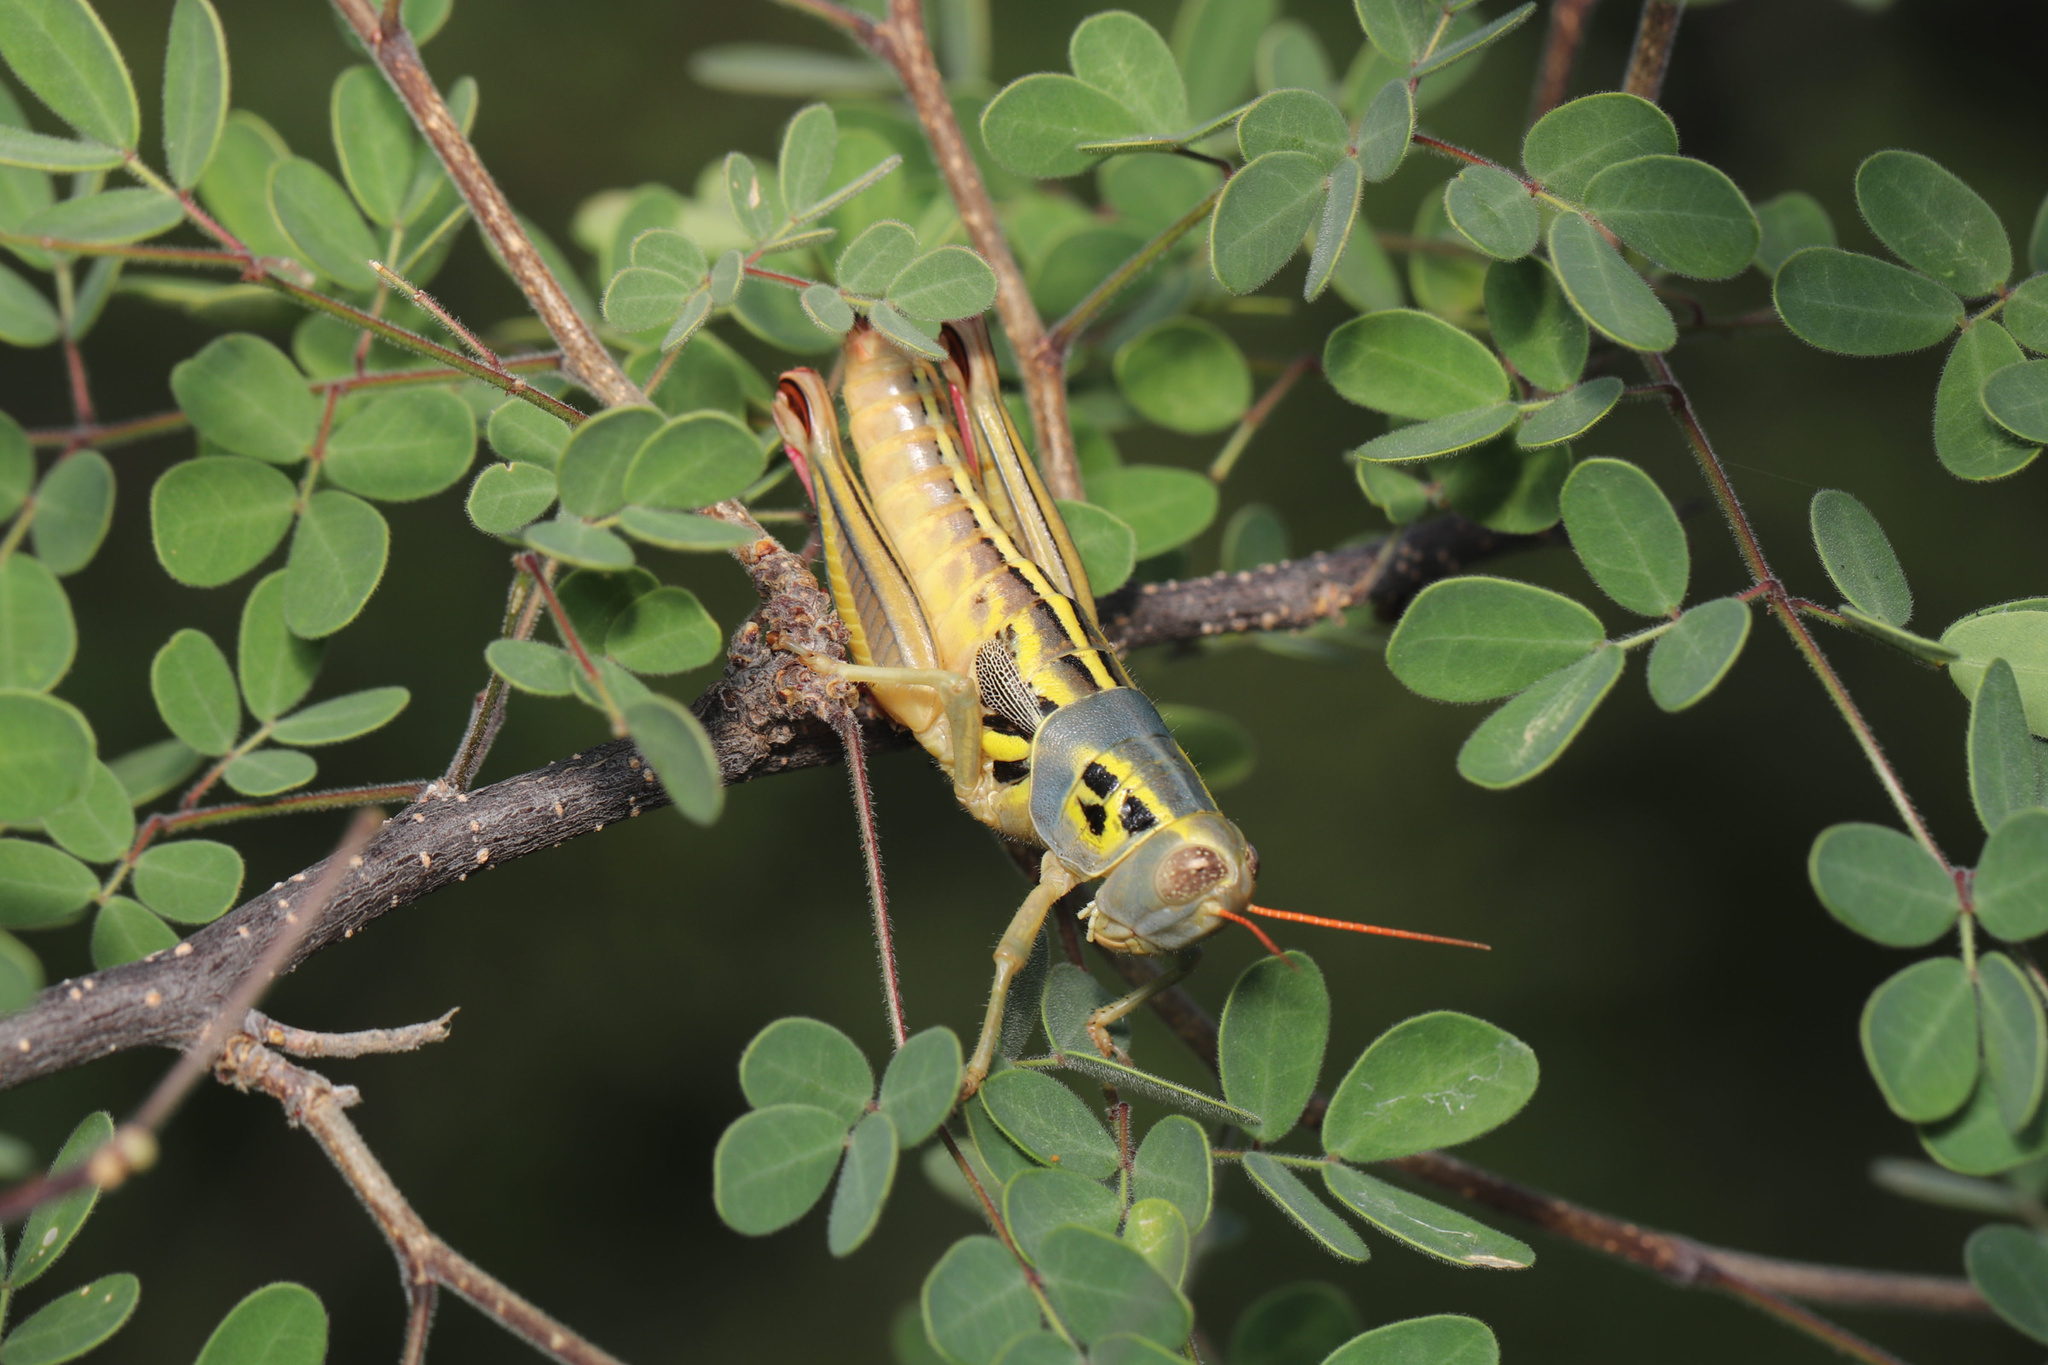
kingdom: Animalia
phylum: Arthropoda
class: Insecta
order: Orthoptera
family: Acrididae
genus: Barytettix
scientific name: Barytettix humphreysii
